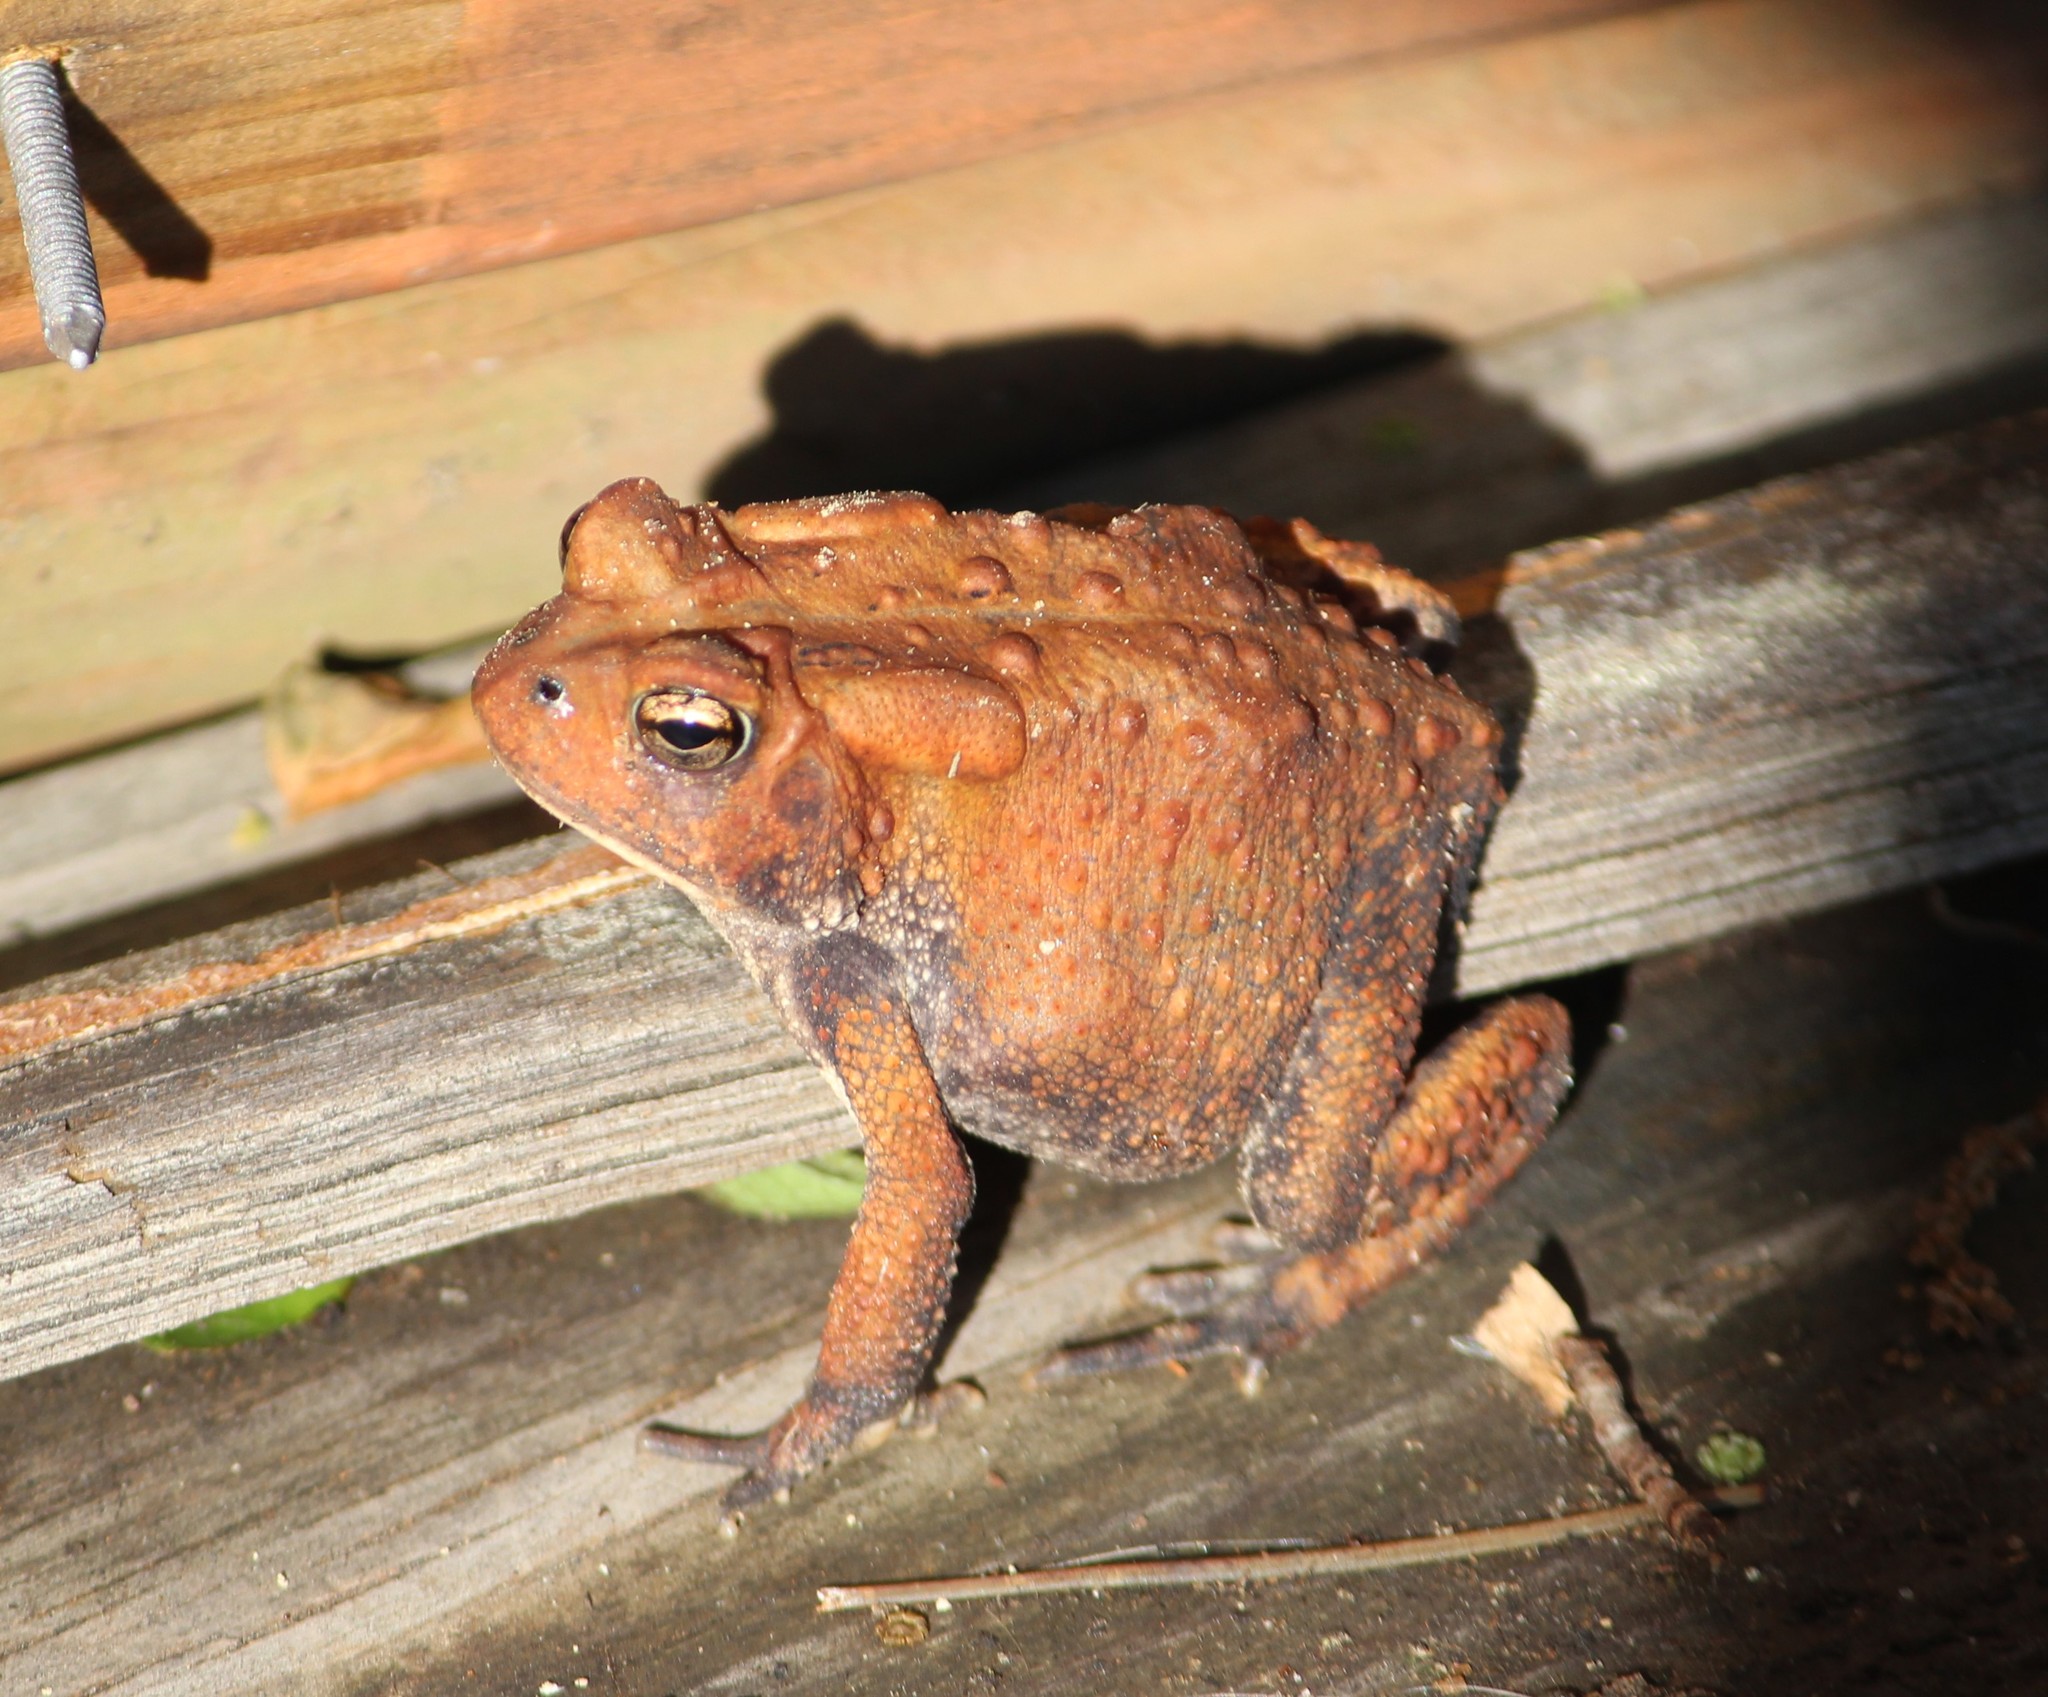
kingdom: Animalia
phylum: Chordata
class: Amphibia
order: Anura
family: Bufonidae
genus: Anaxyrus
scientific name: Anaxyrus americanus
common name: American toad
